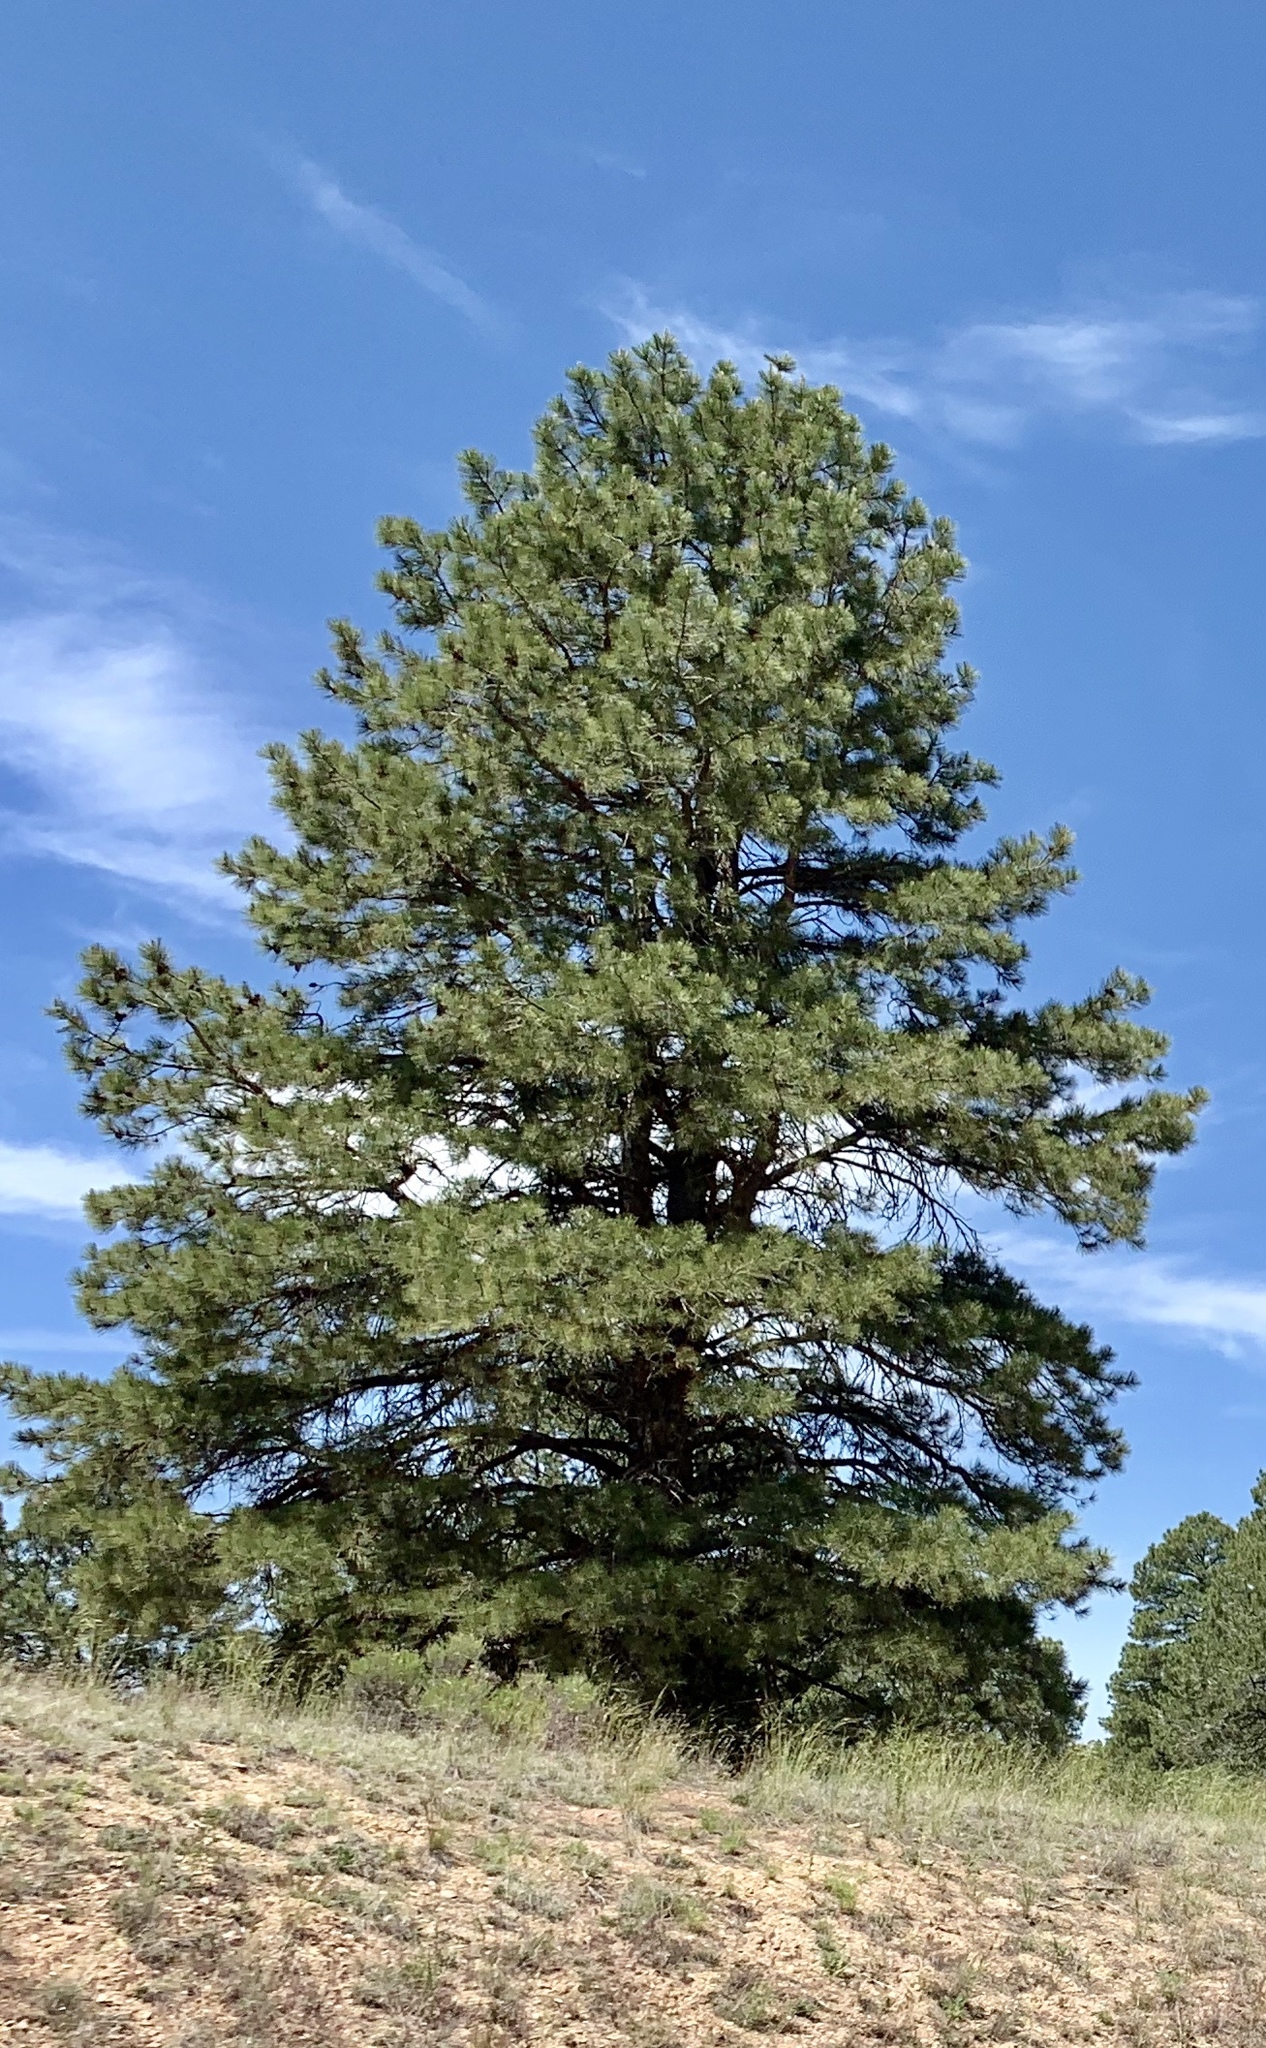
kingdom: Plantae
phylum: Tracheophyta
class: Pinopsida
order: Pinales
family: Pinaceae
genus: Pinus
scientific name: Pinus ponderosa
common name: Western yellow-pine
